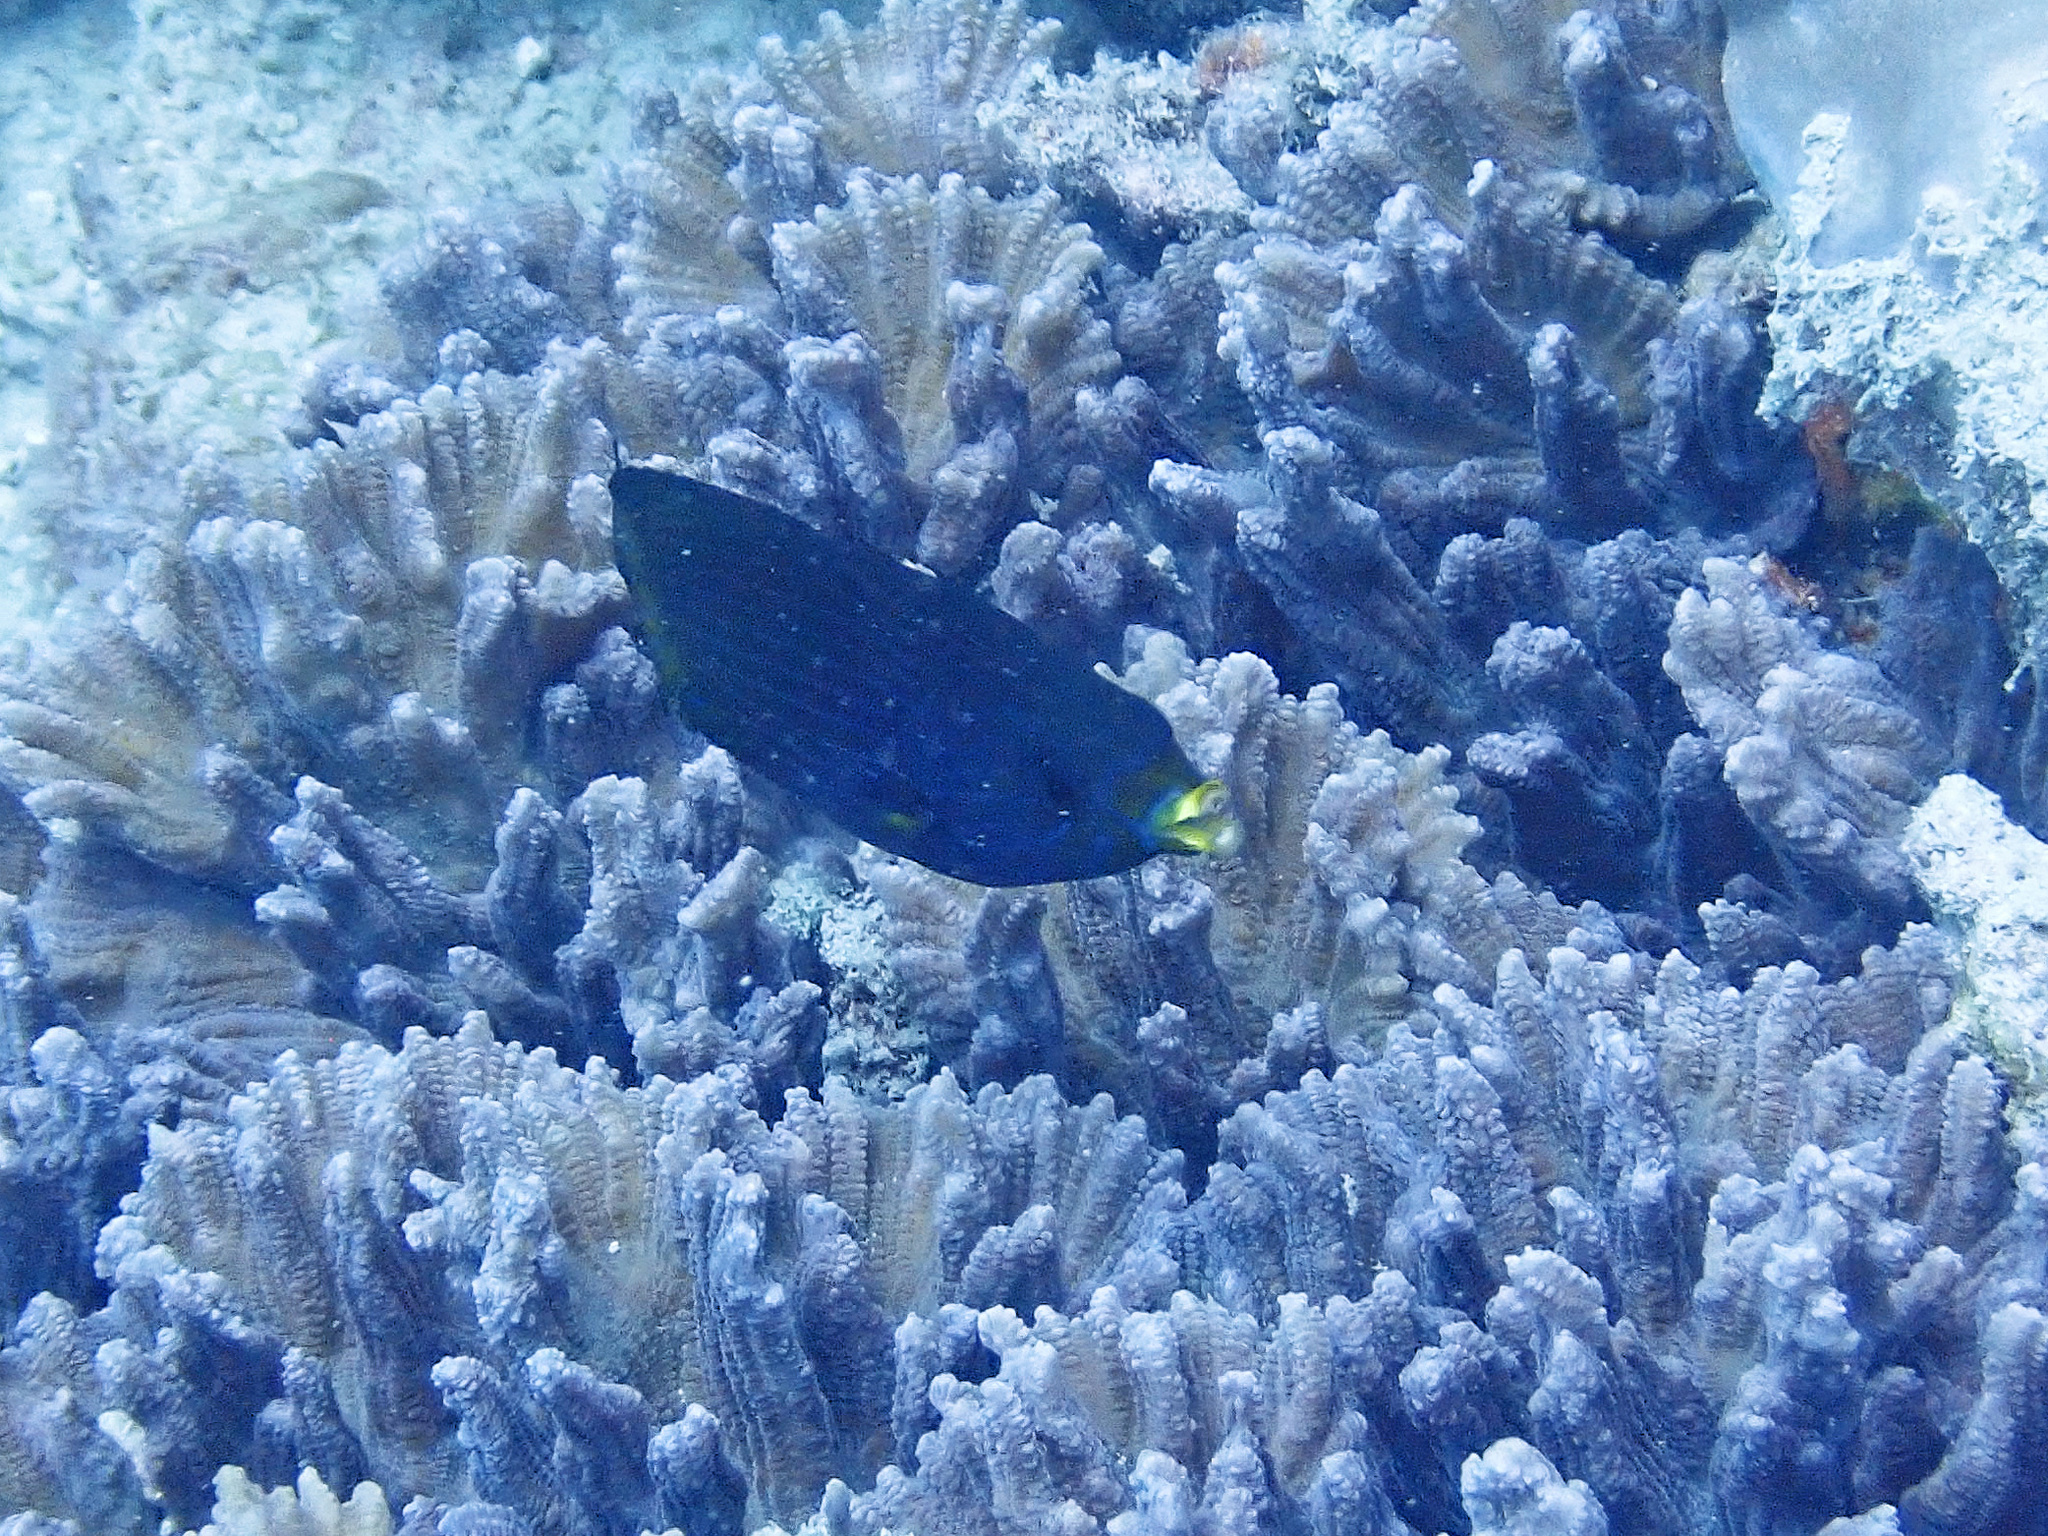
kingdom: Animalia
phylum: Chordata
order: Perciformes
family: Labridae
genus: Labrichthys
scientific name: Labrichthys unilineatus
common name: Onelined wrasse
